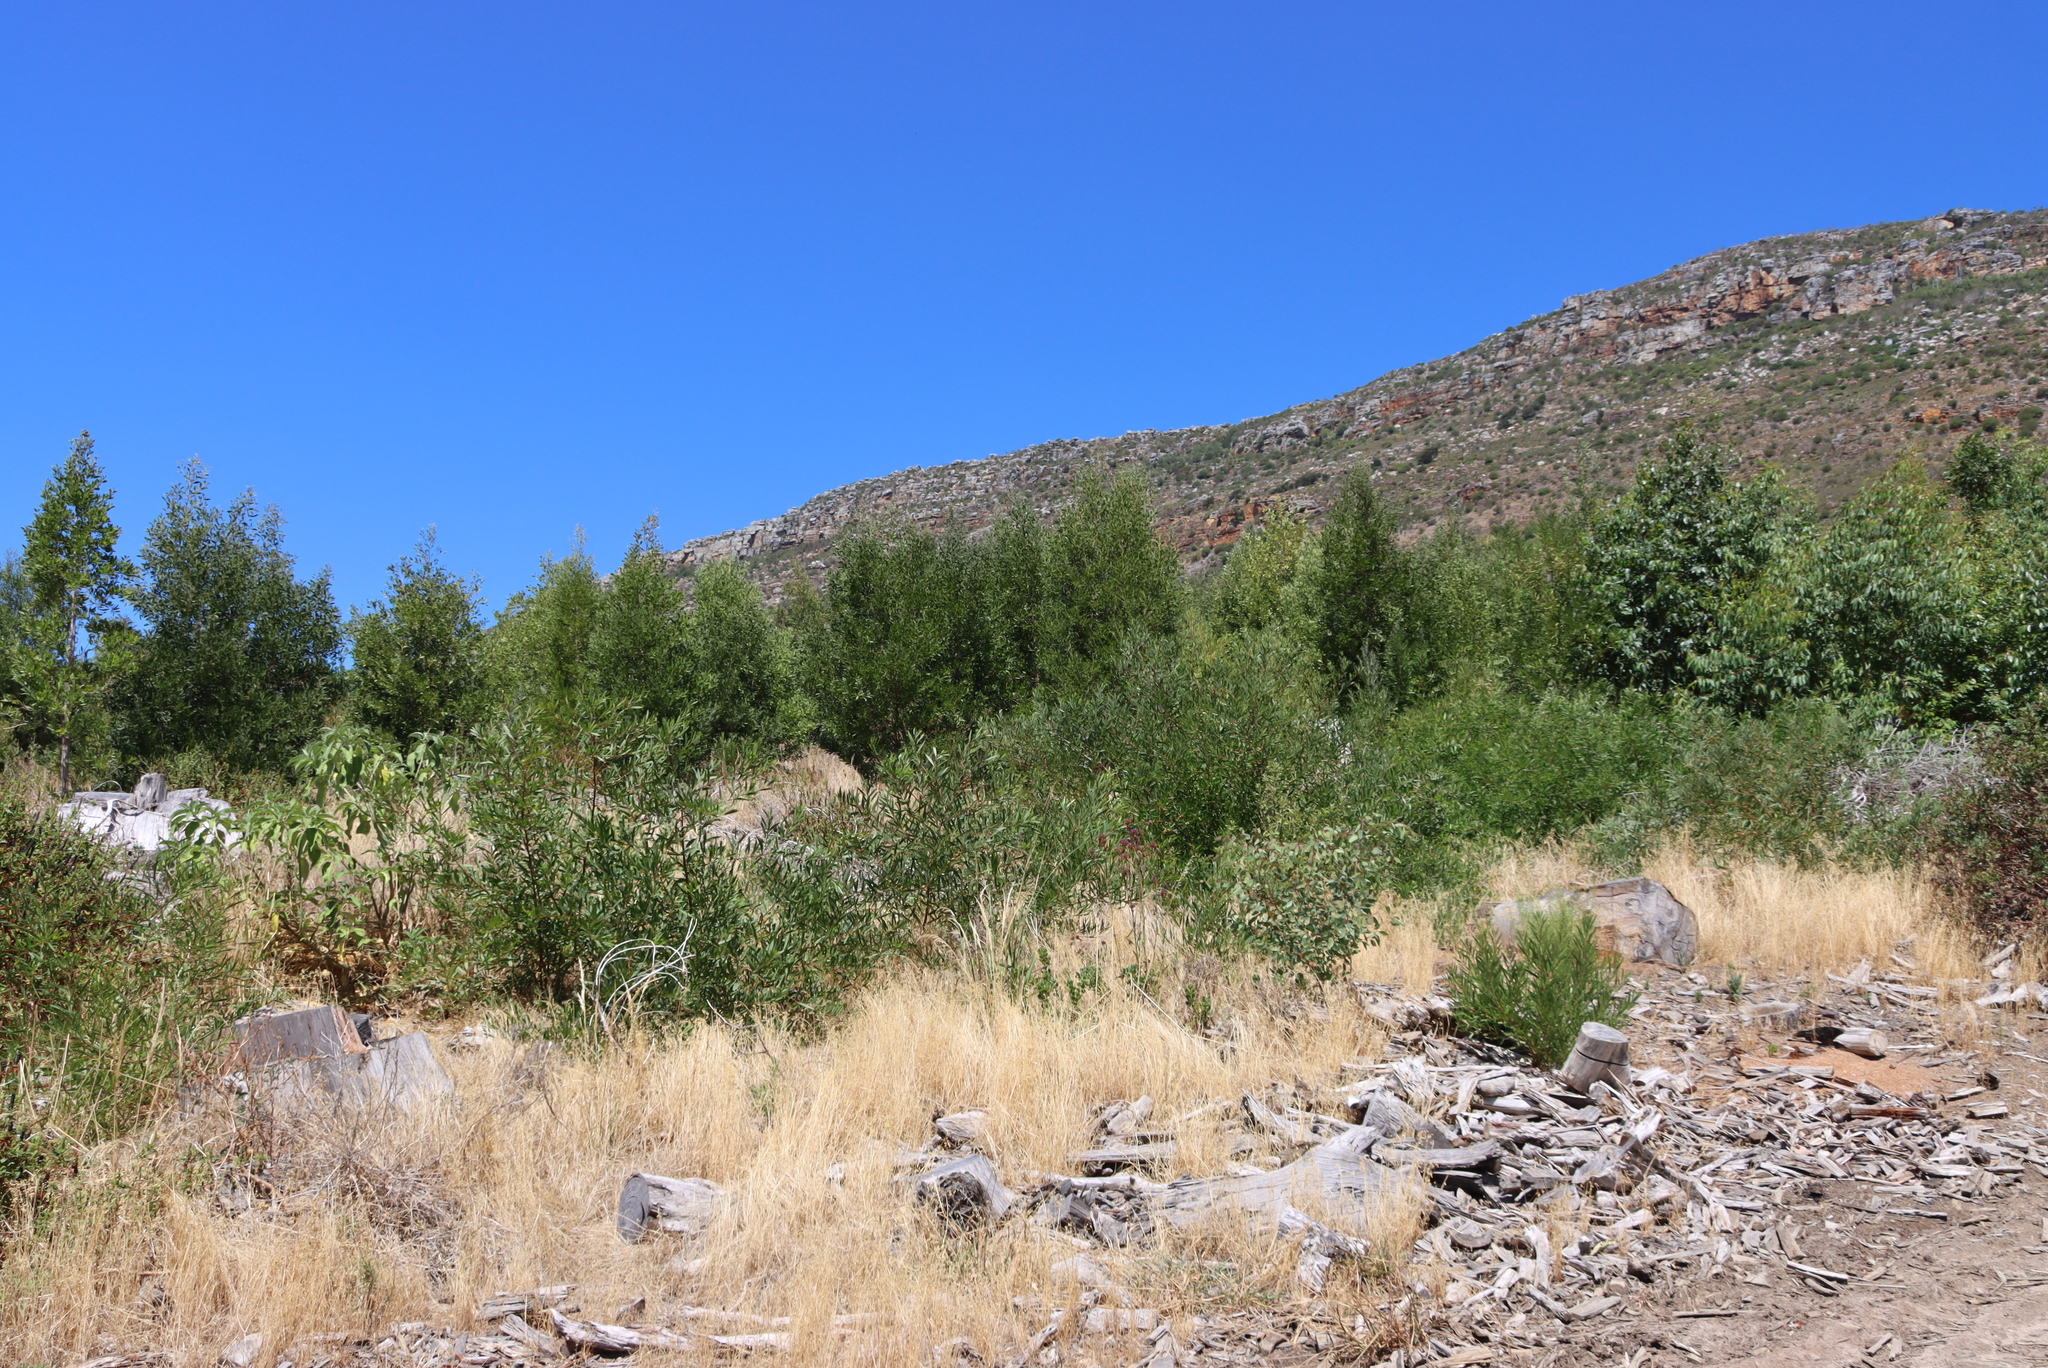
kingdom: Plantae
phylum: Tracheophyta
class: Magnoliopsida
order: Fabales
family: Fabaceae
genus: Acacia
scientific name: Acacia melanoxylon
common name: Blackwood
